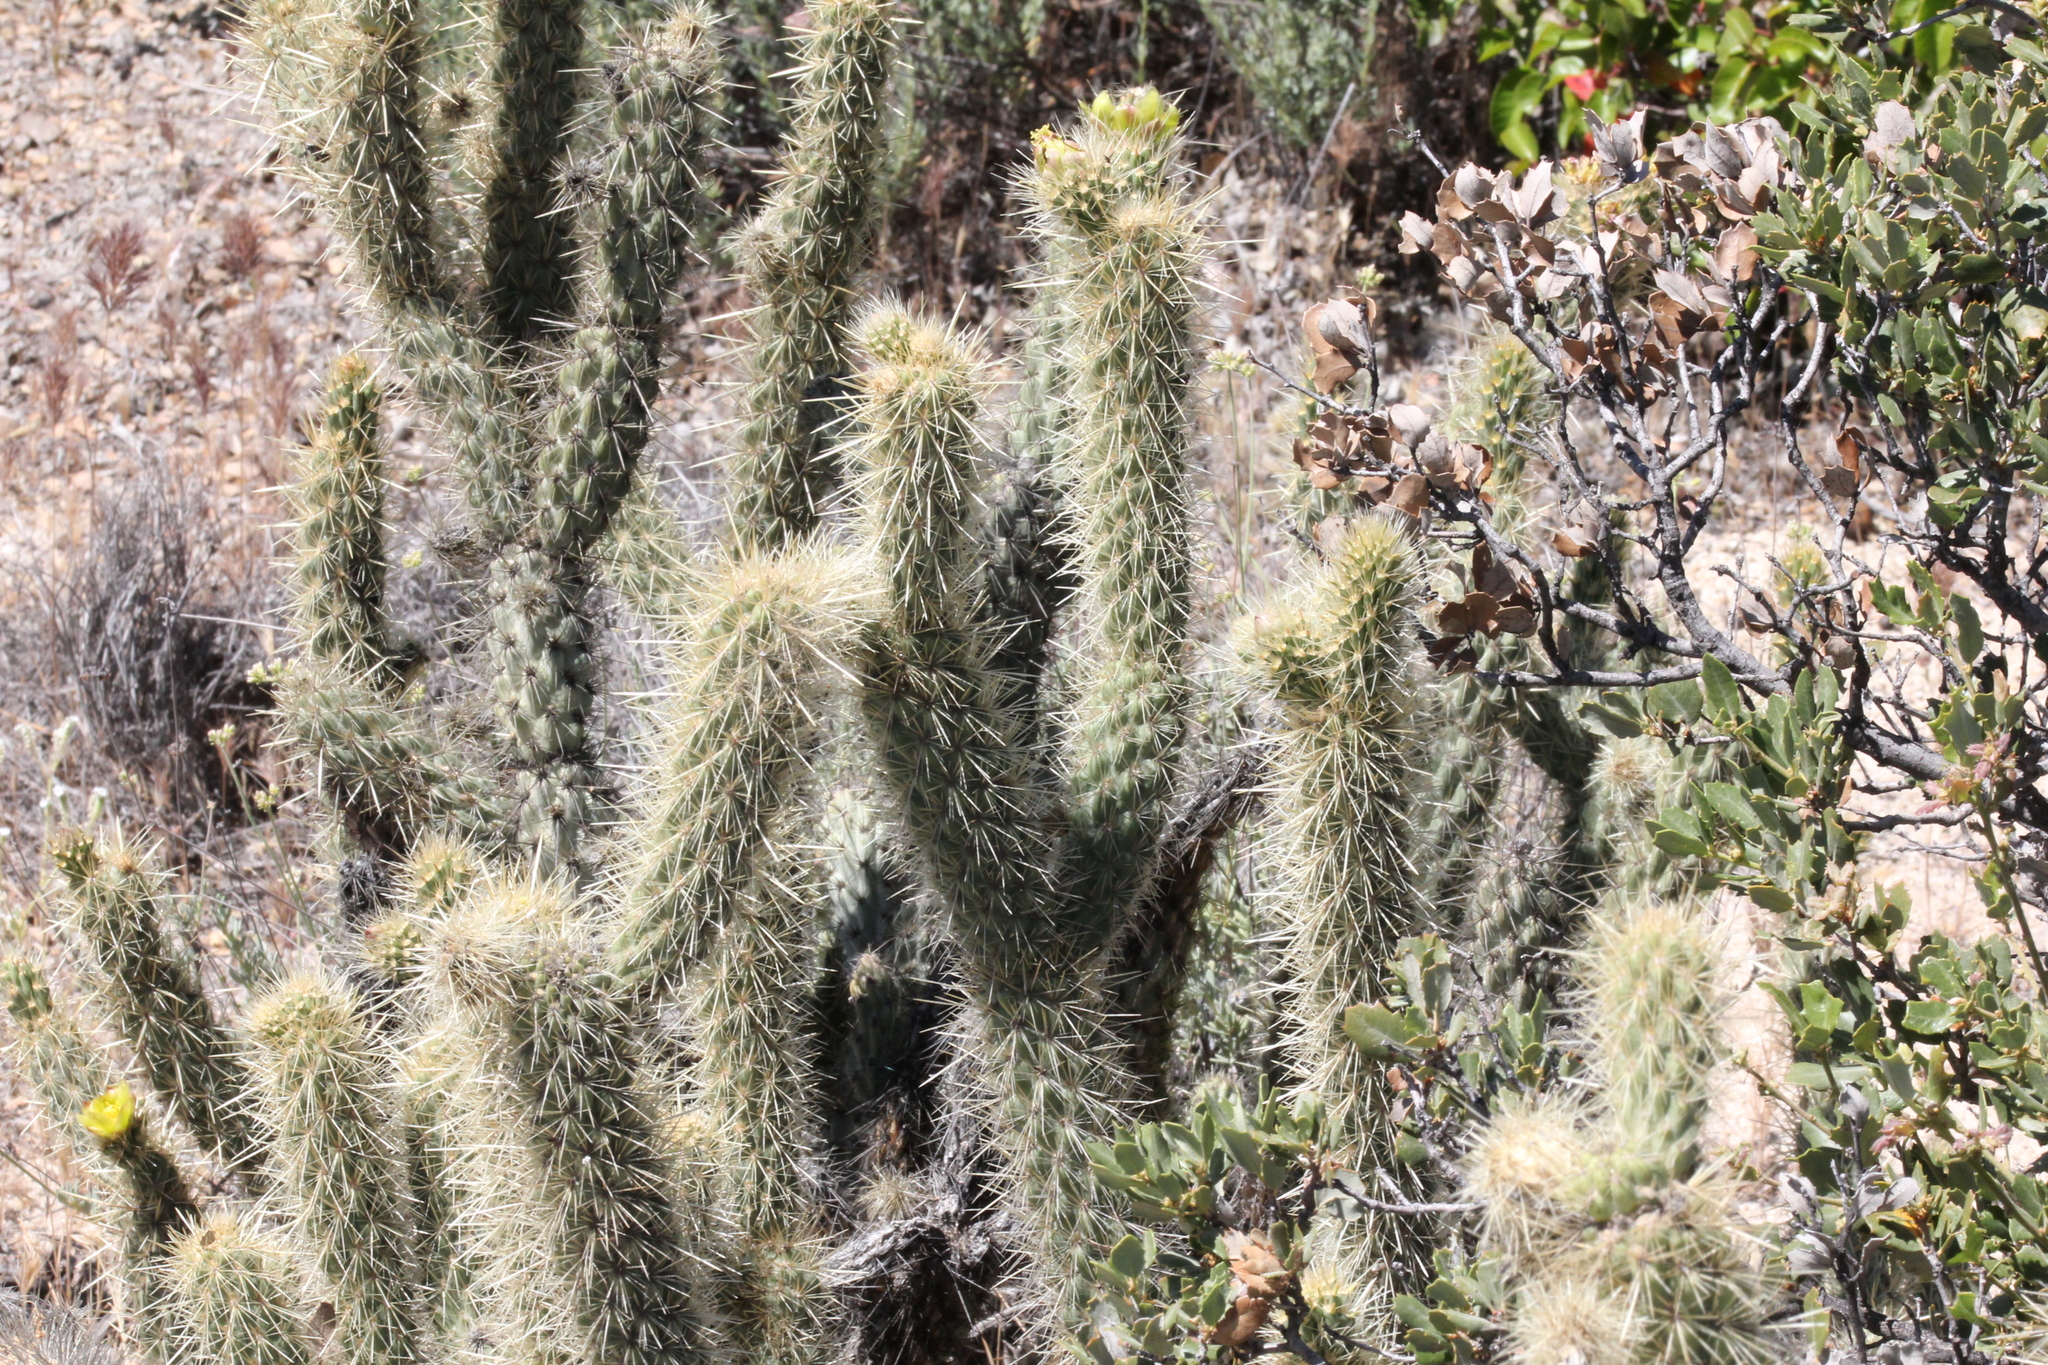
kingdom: Plantae
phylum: Tracheophyta
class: Magnoliopsida
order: Caryophyllales
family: Cactaceae
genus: Cylindropuntia
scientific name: Cylindropuntia ganderi
